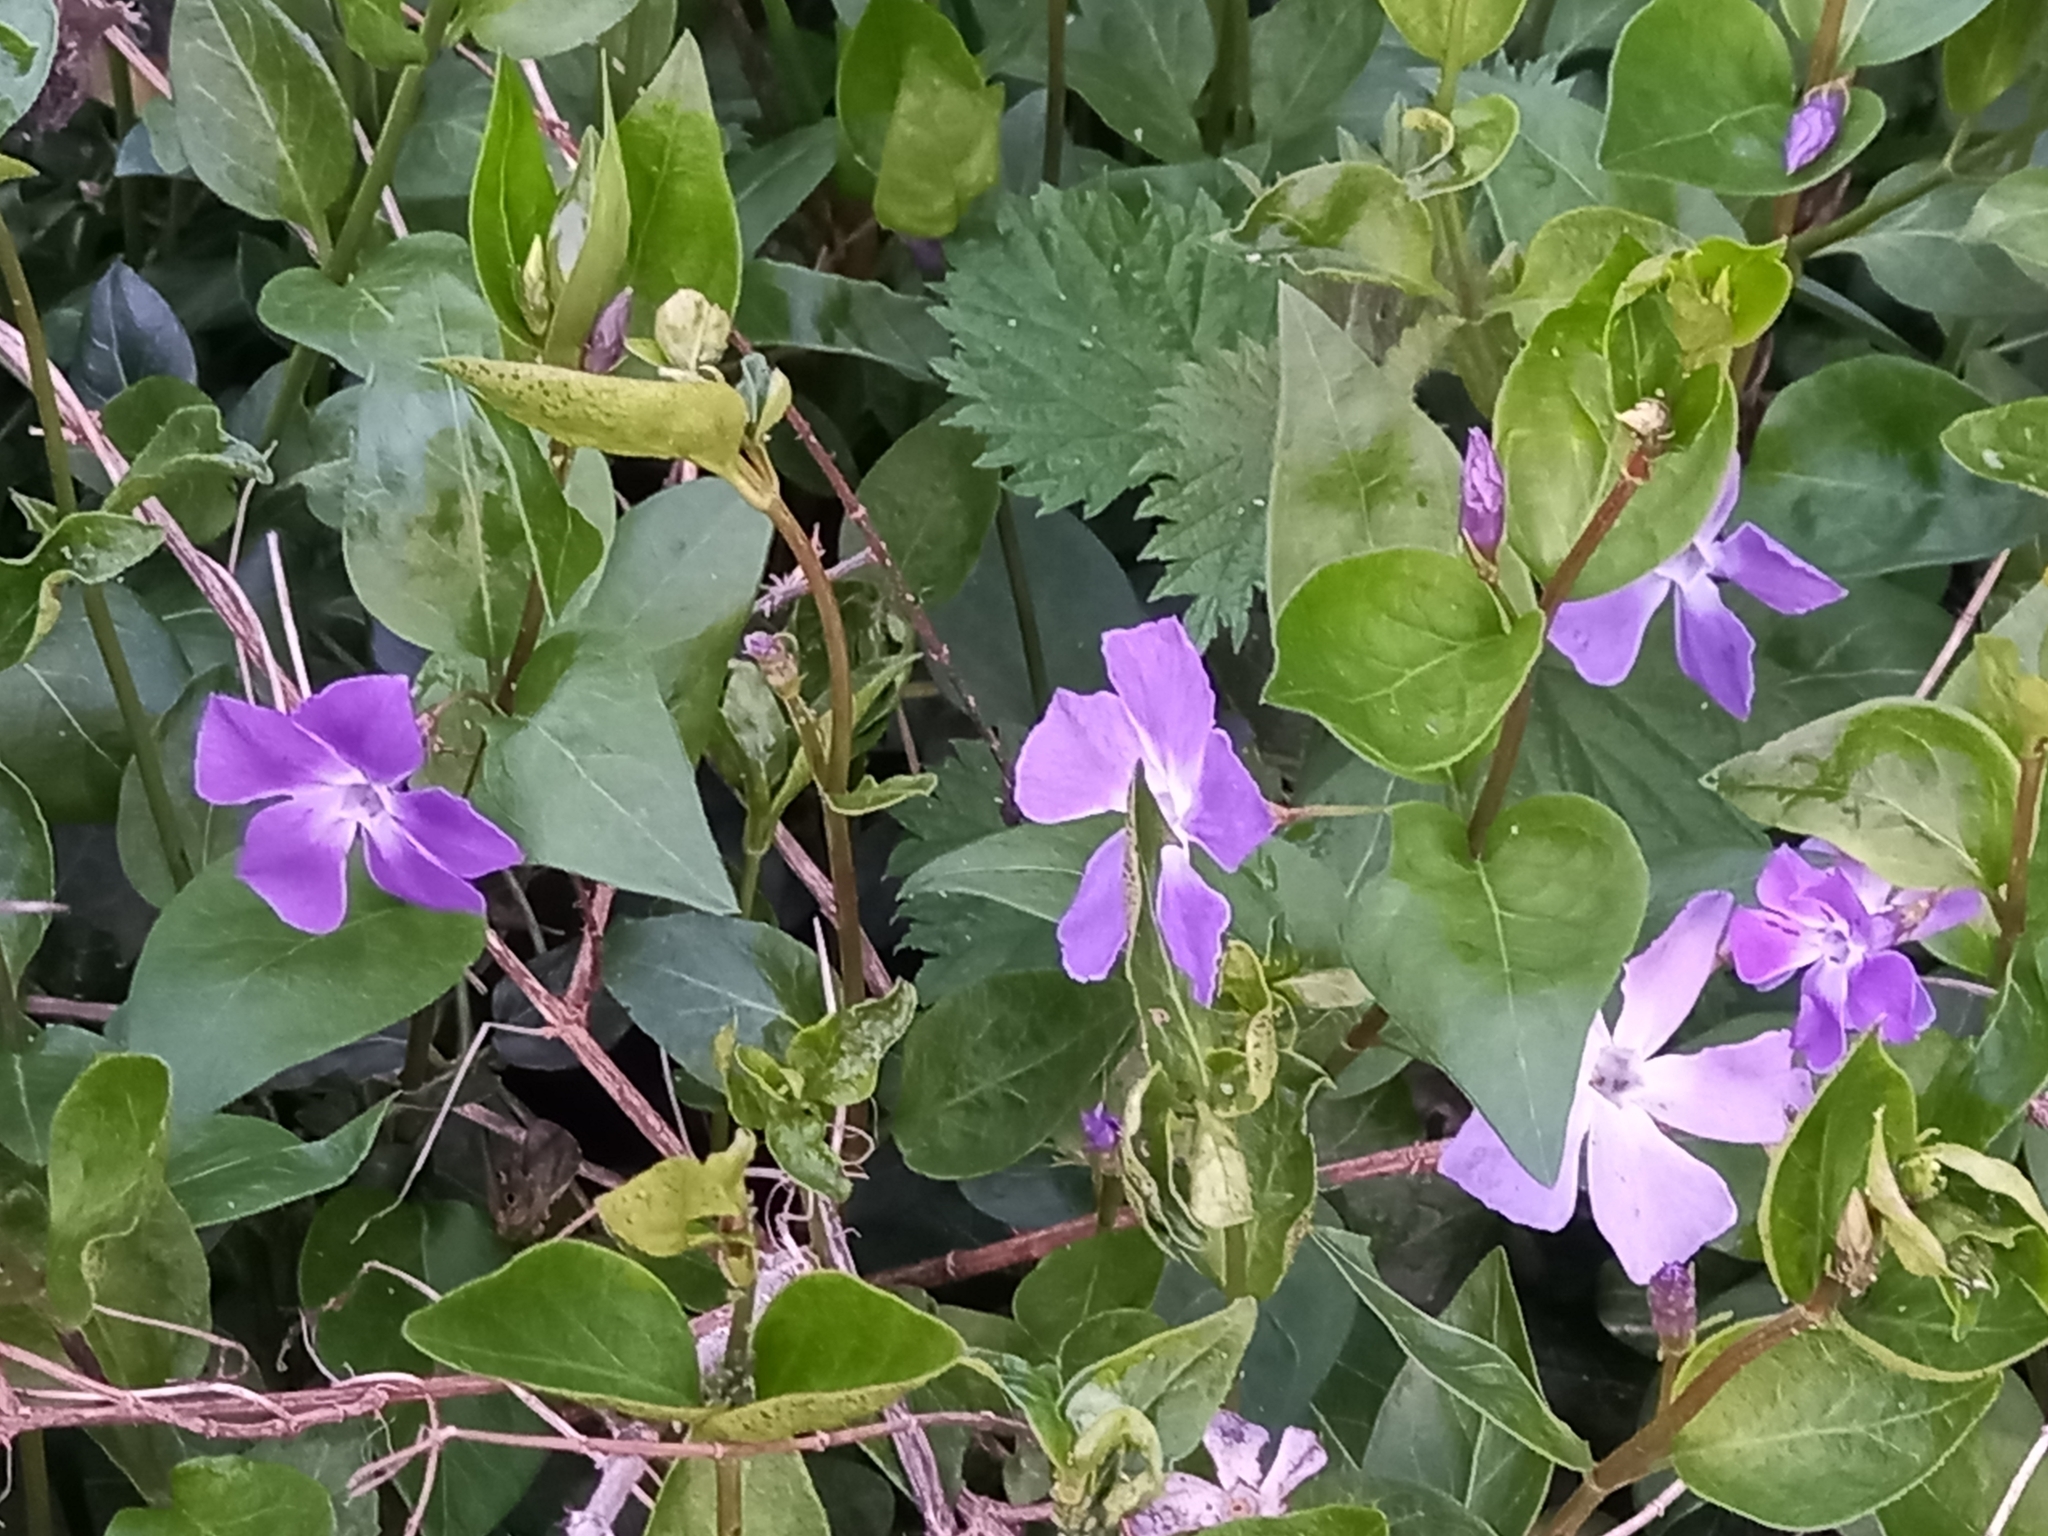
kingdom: Plantae
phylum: Tracheophyta
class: Magnoliopsida
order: Gentianales
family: Apocynaceae
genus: Vinca
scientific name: Vinca major
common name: Greater periwinkle
